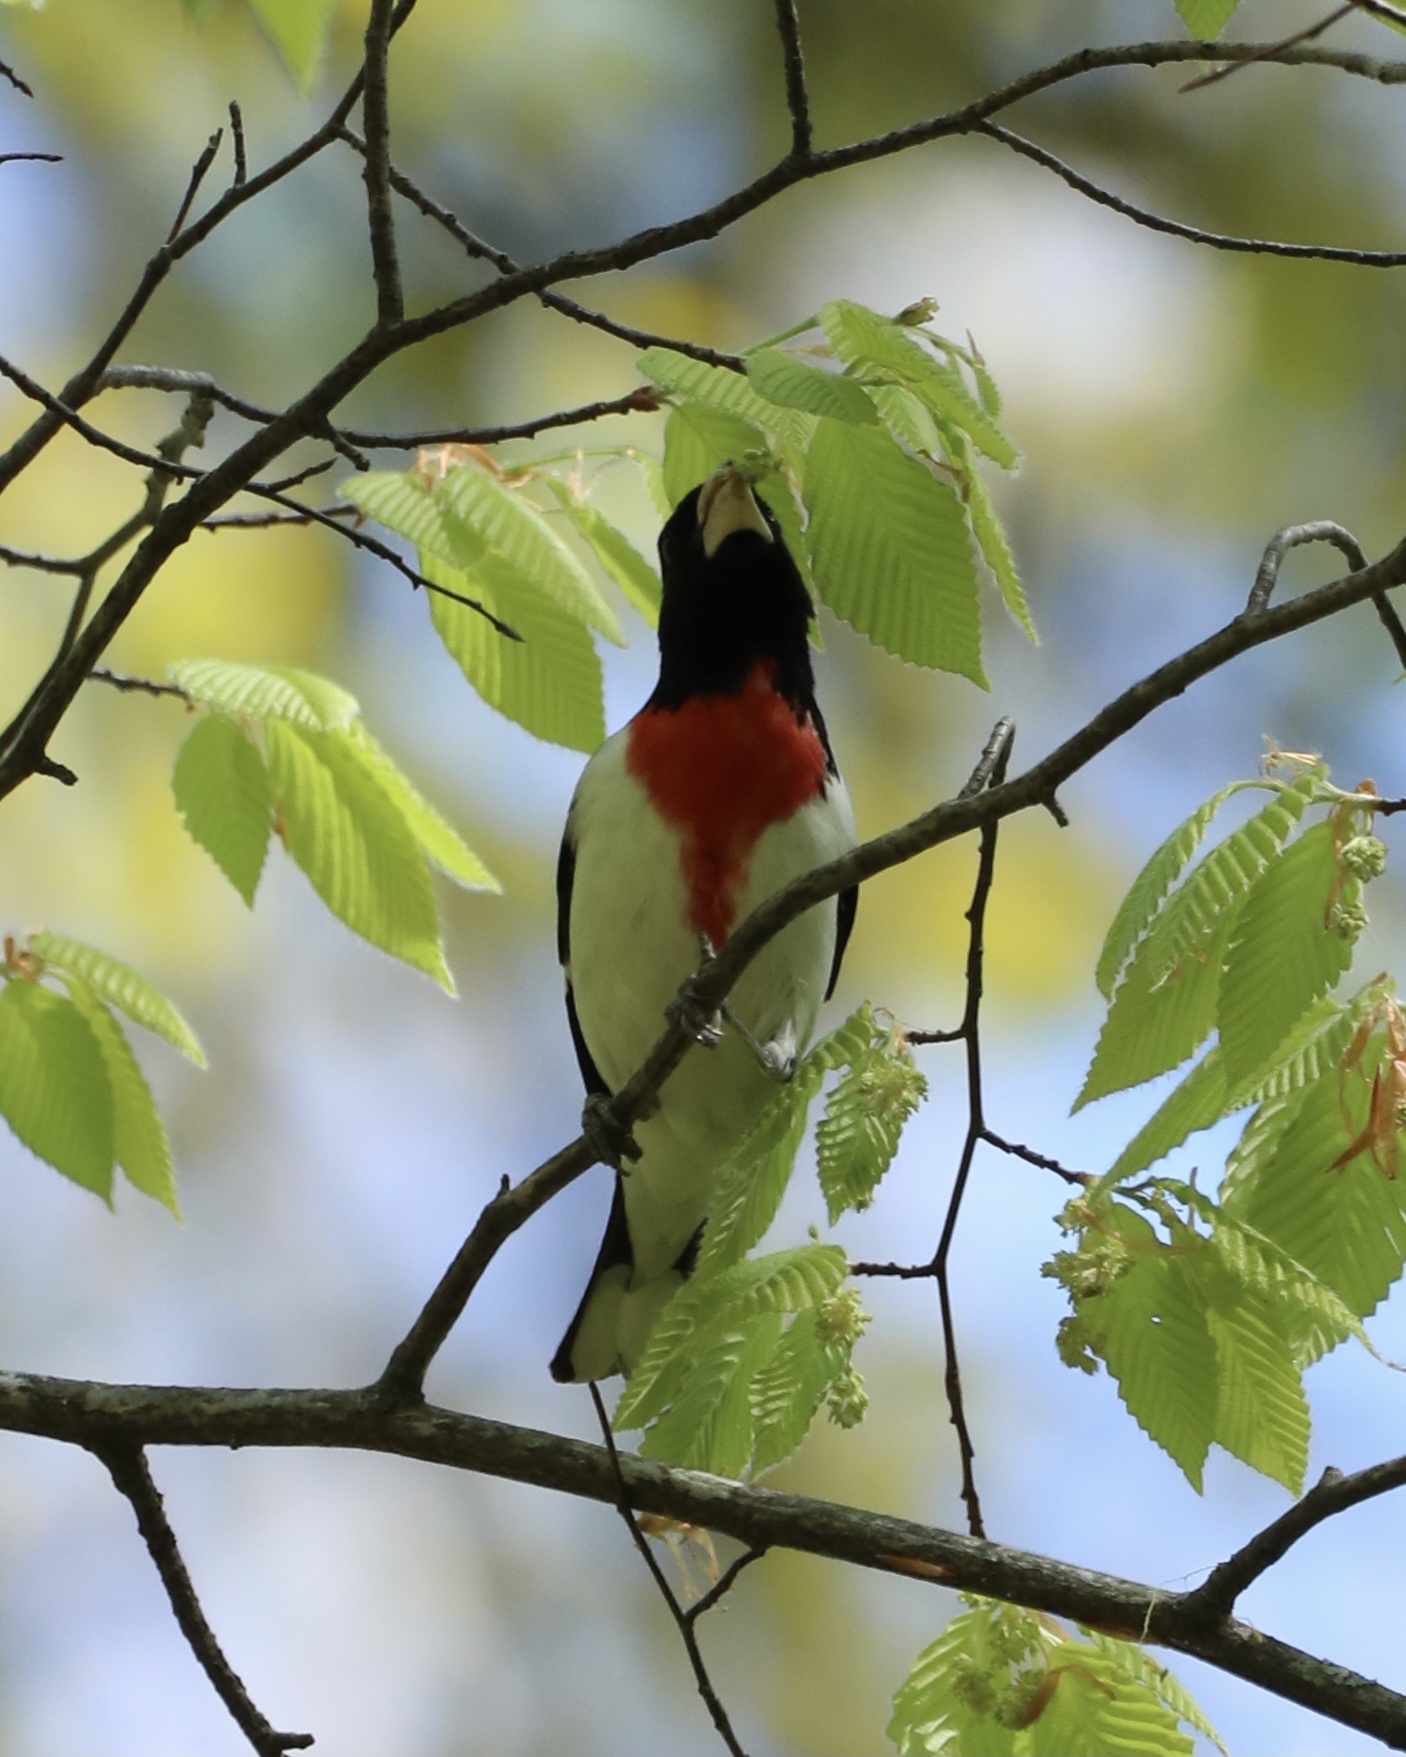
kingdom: Animalia
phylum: Chordata
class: Aves
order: Passeriformes
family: Cardinalidae
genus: Pheucticus
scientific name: Pheucticus ludovicianus
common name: Rose-breasted grosbeak
